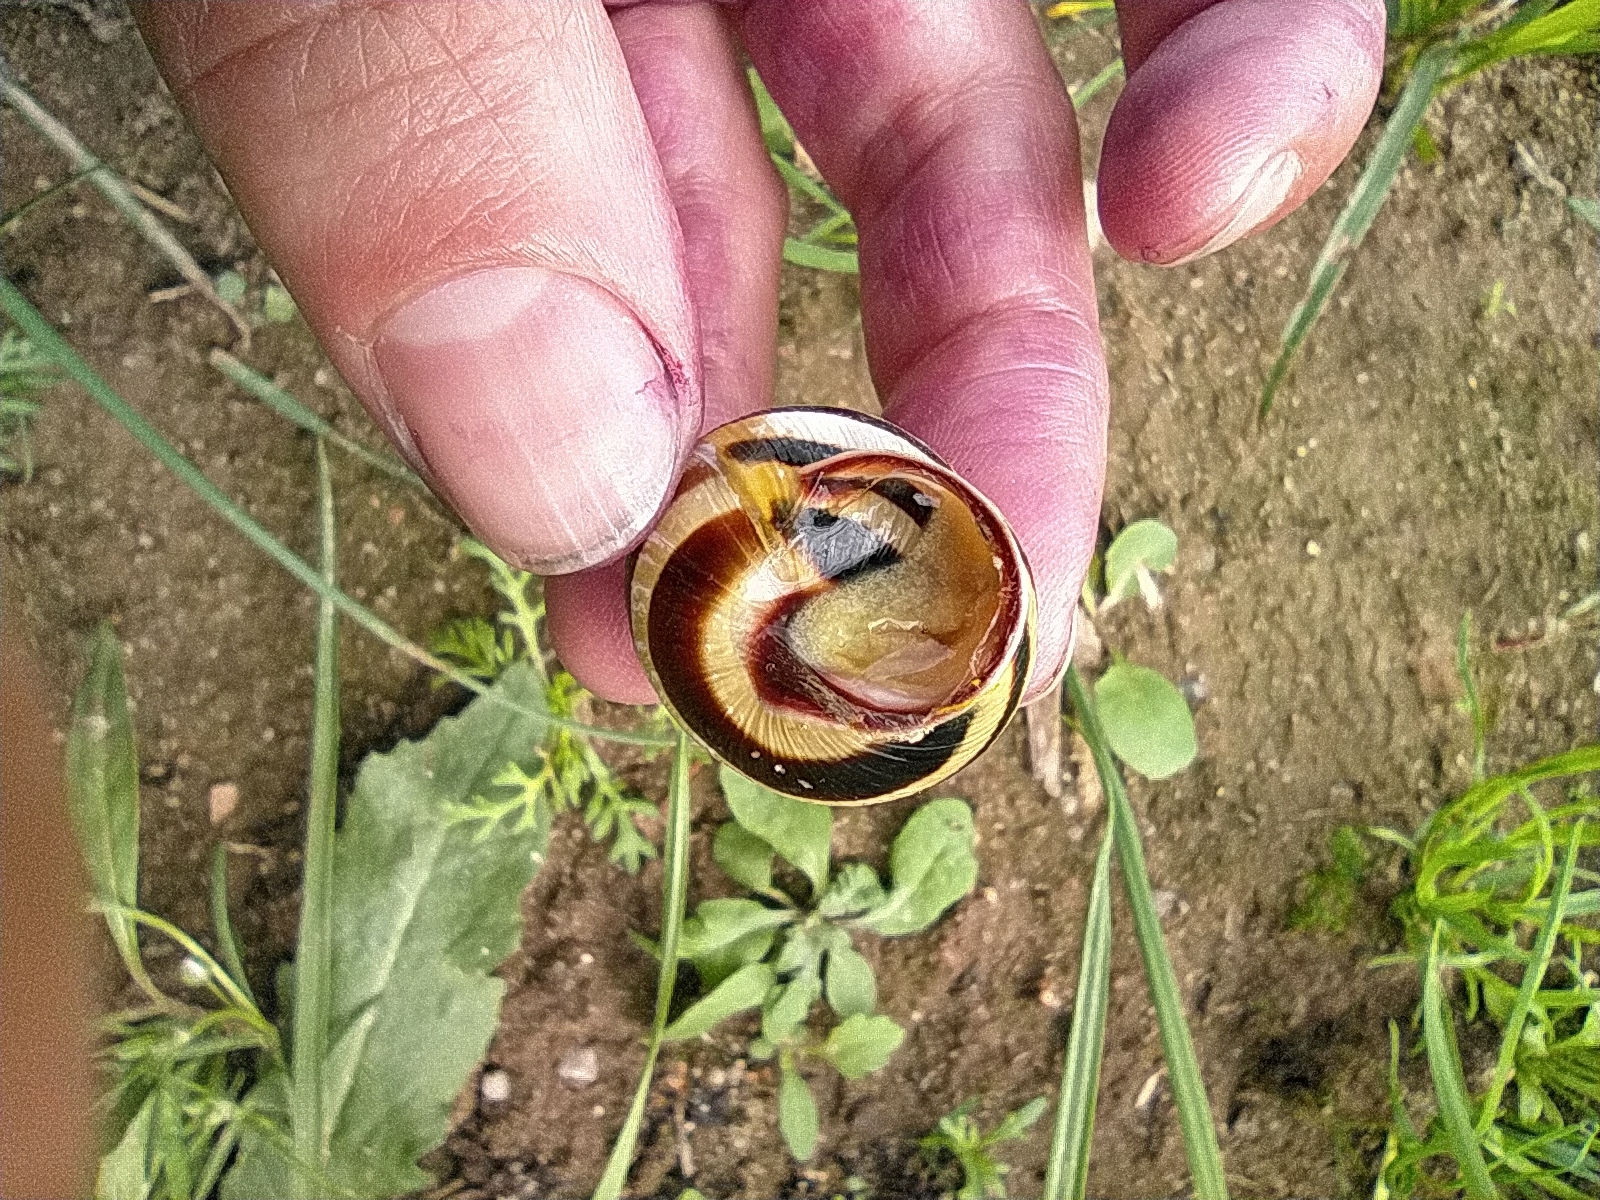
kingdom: Animalia
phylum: Mollusca
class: Gastropoda
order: Stylommatophora
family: Helicidae
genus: Caucasotachea
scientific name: Caucasotachea vindobonensis
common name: European helicid land snail
